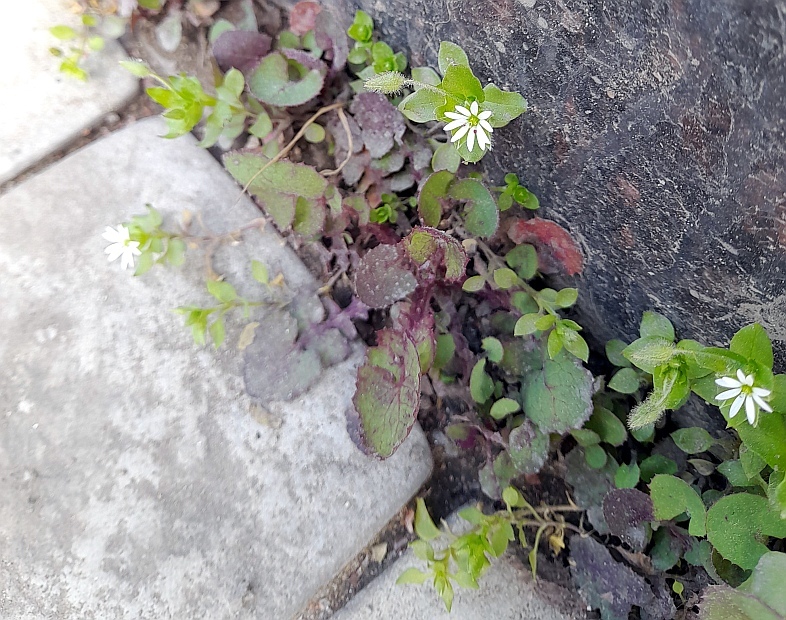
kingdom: Plantae
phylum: Tracheophyta
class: Magnoliopsida
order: Caryophyllales
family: Caryophyllaceae
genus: Stellaria
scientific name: Stellaria media
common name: Common chickweed
